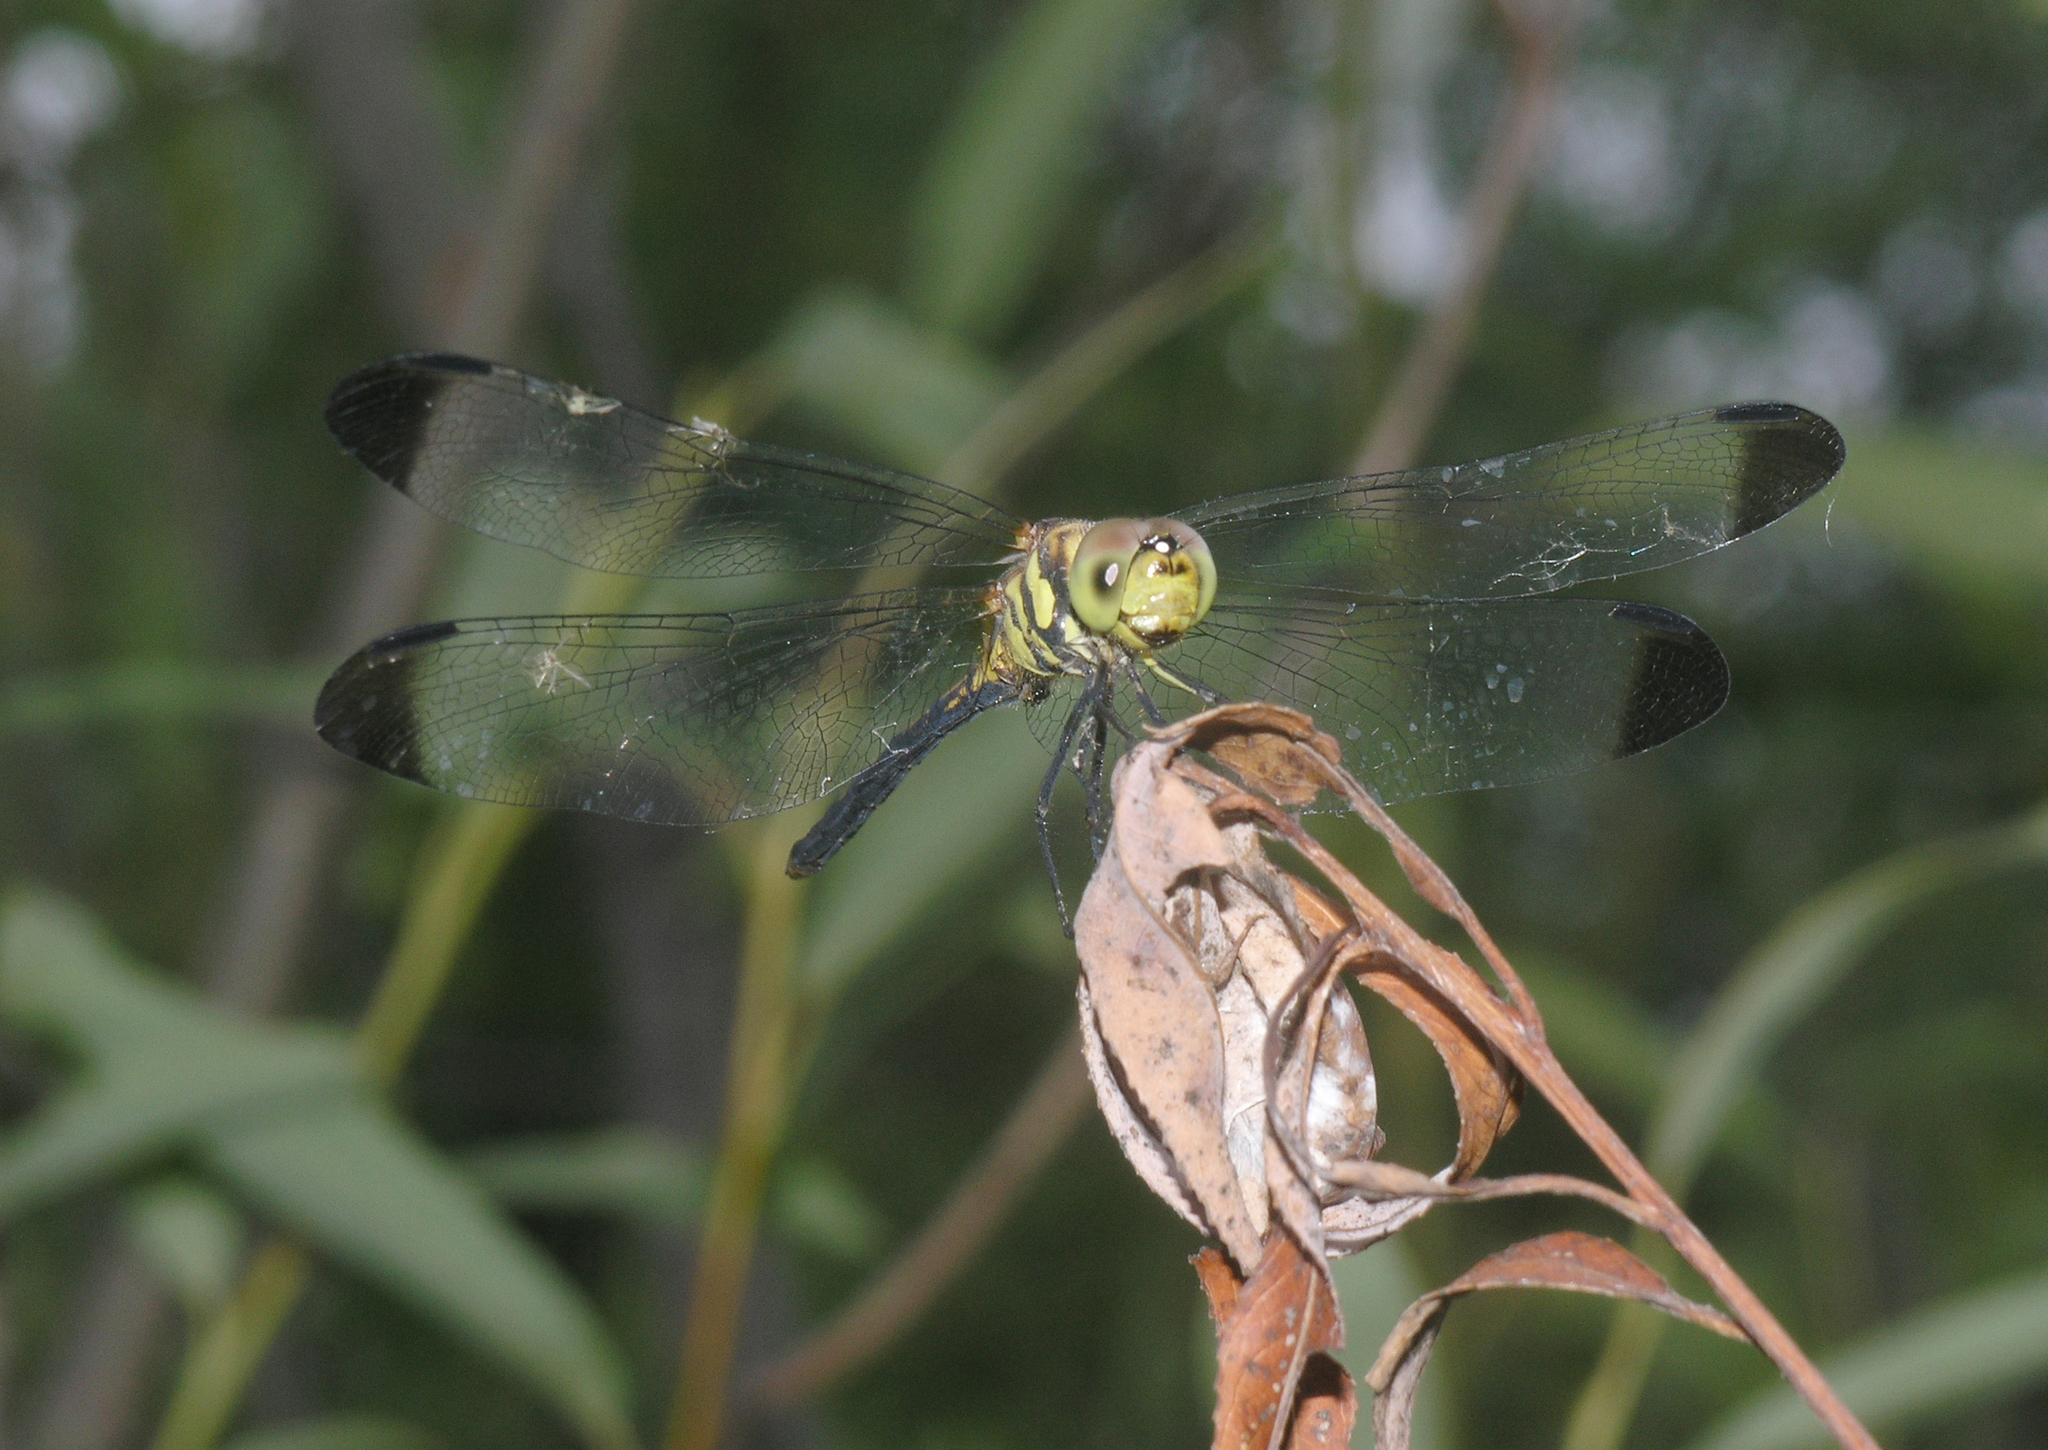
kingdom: Animalia
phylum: Arthropoda
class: Insecta
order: Odonata
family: Libellulidae
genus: Sympetrum
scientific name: Sympetrum infuscatum
